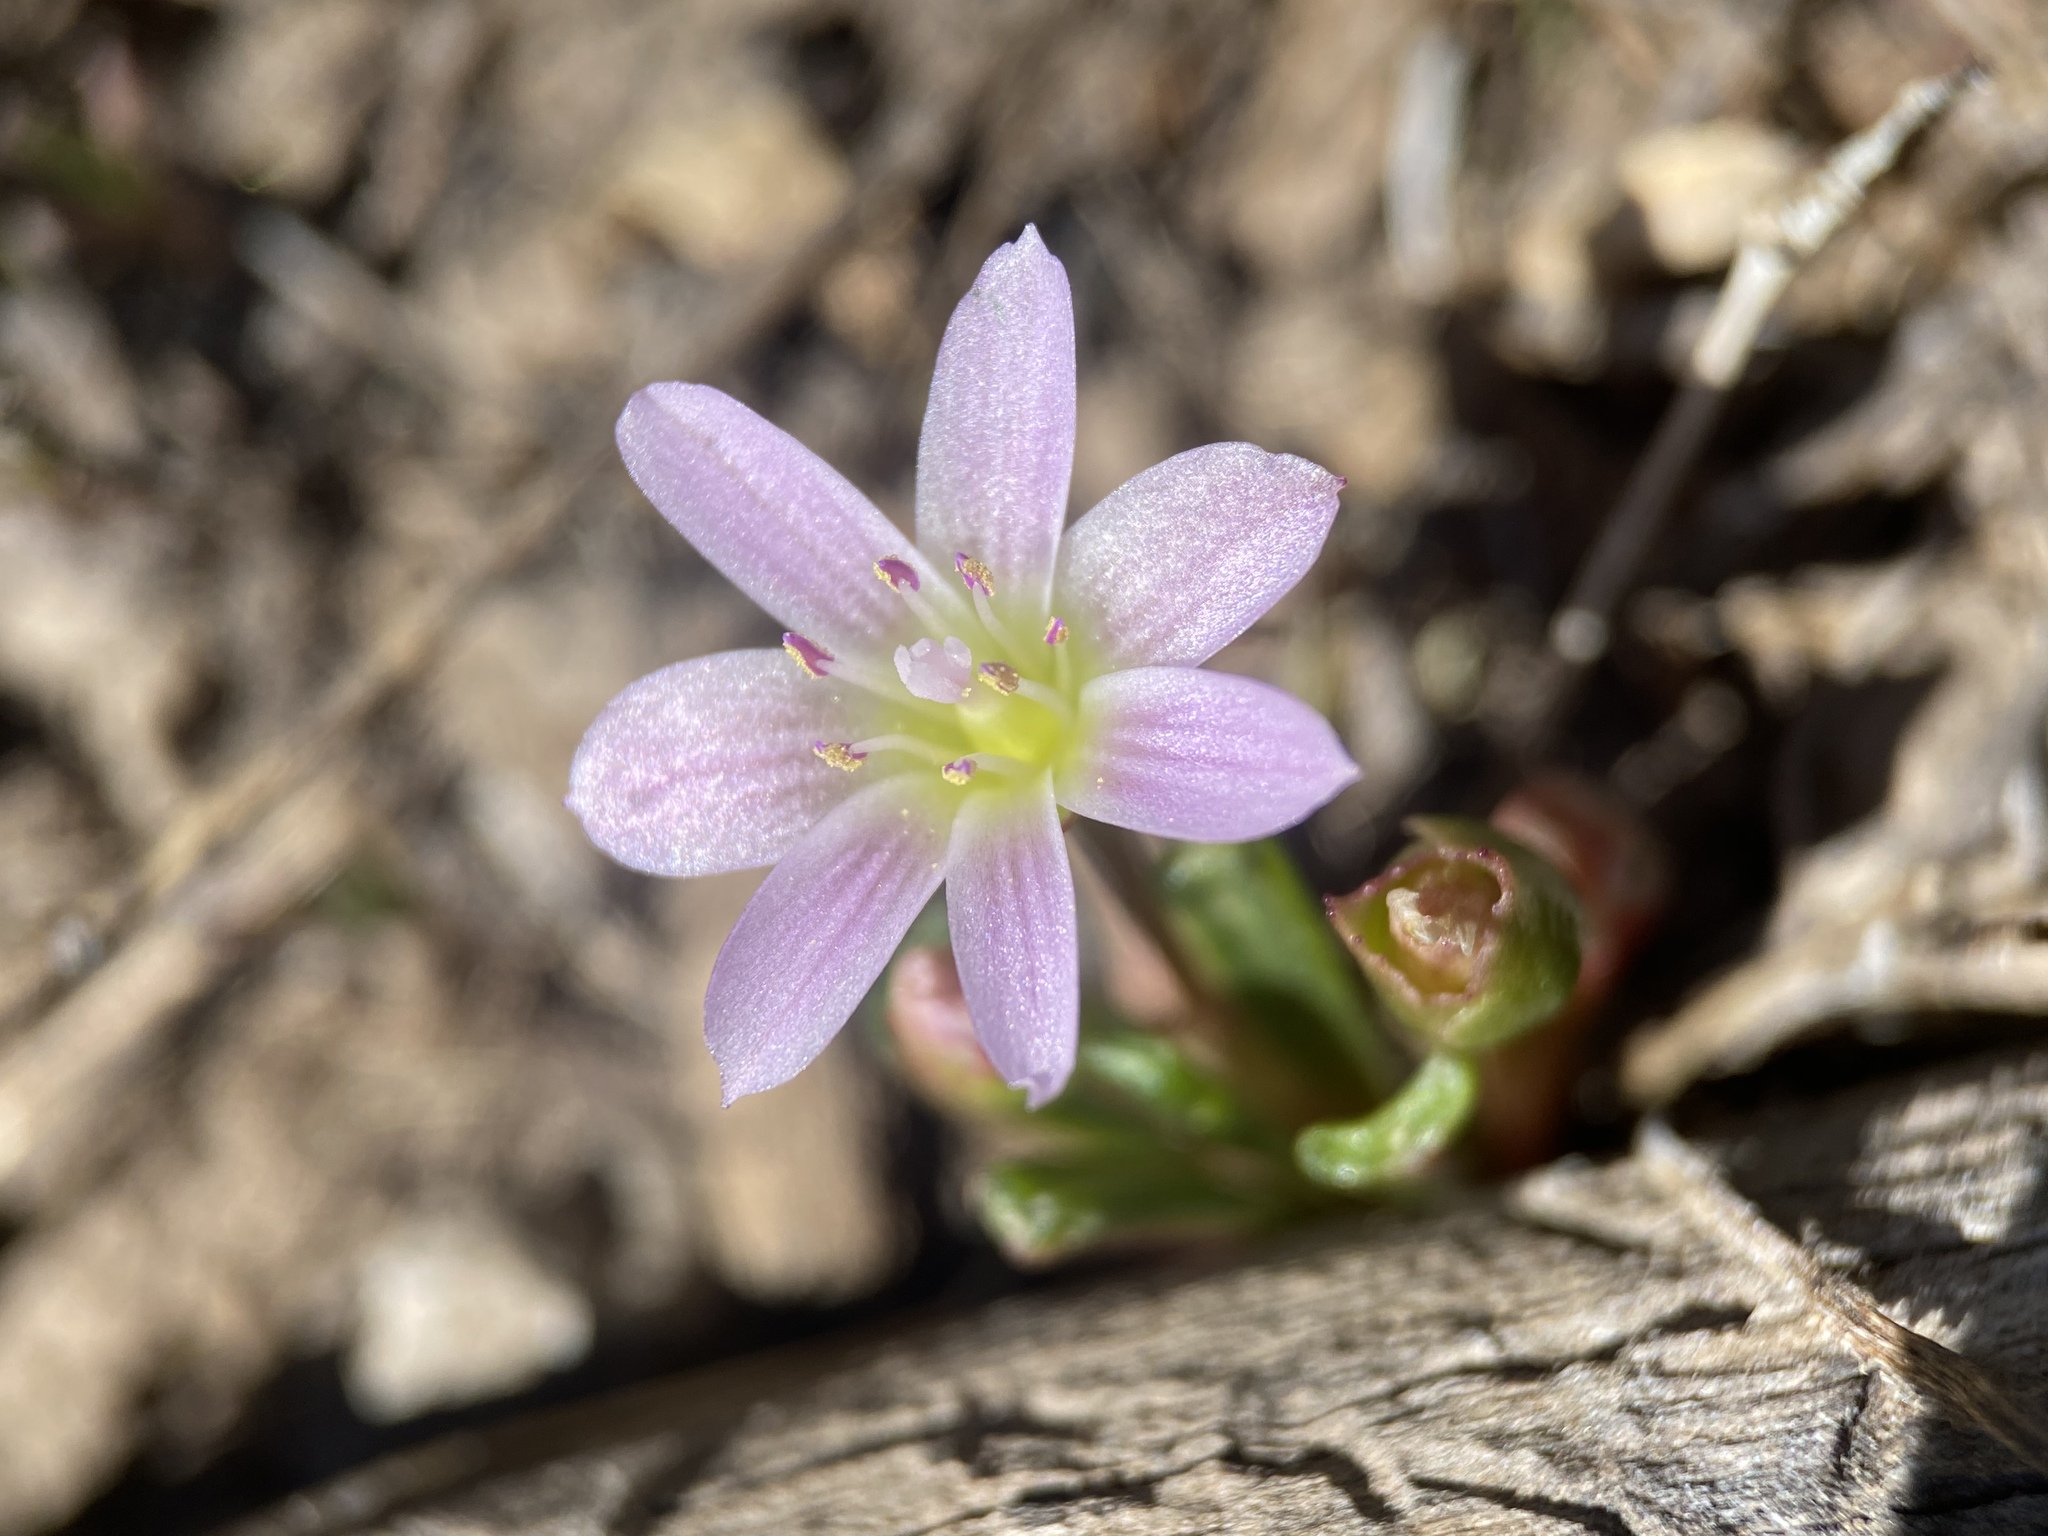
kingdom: Plantae
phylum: Tracheophyta
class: Magnoliopsida
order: Caryophyllales
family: Montiaceae
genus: Lewisia
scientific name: Lewisia pygmaea
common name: Alpine bitterroot
